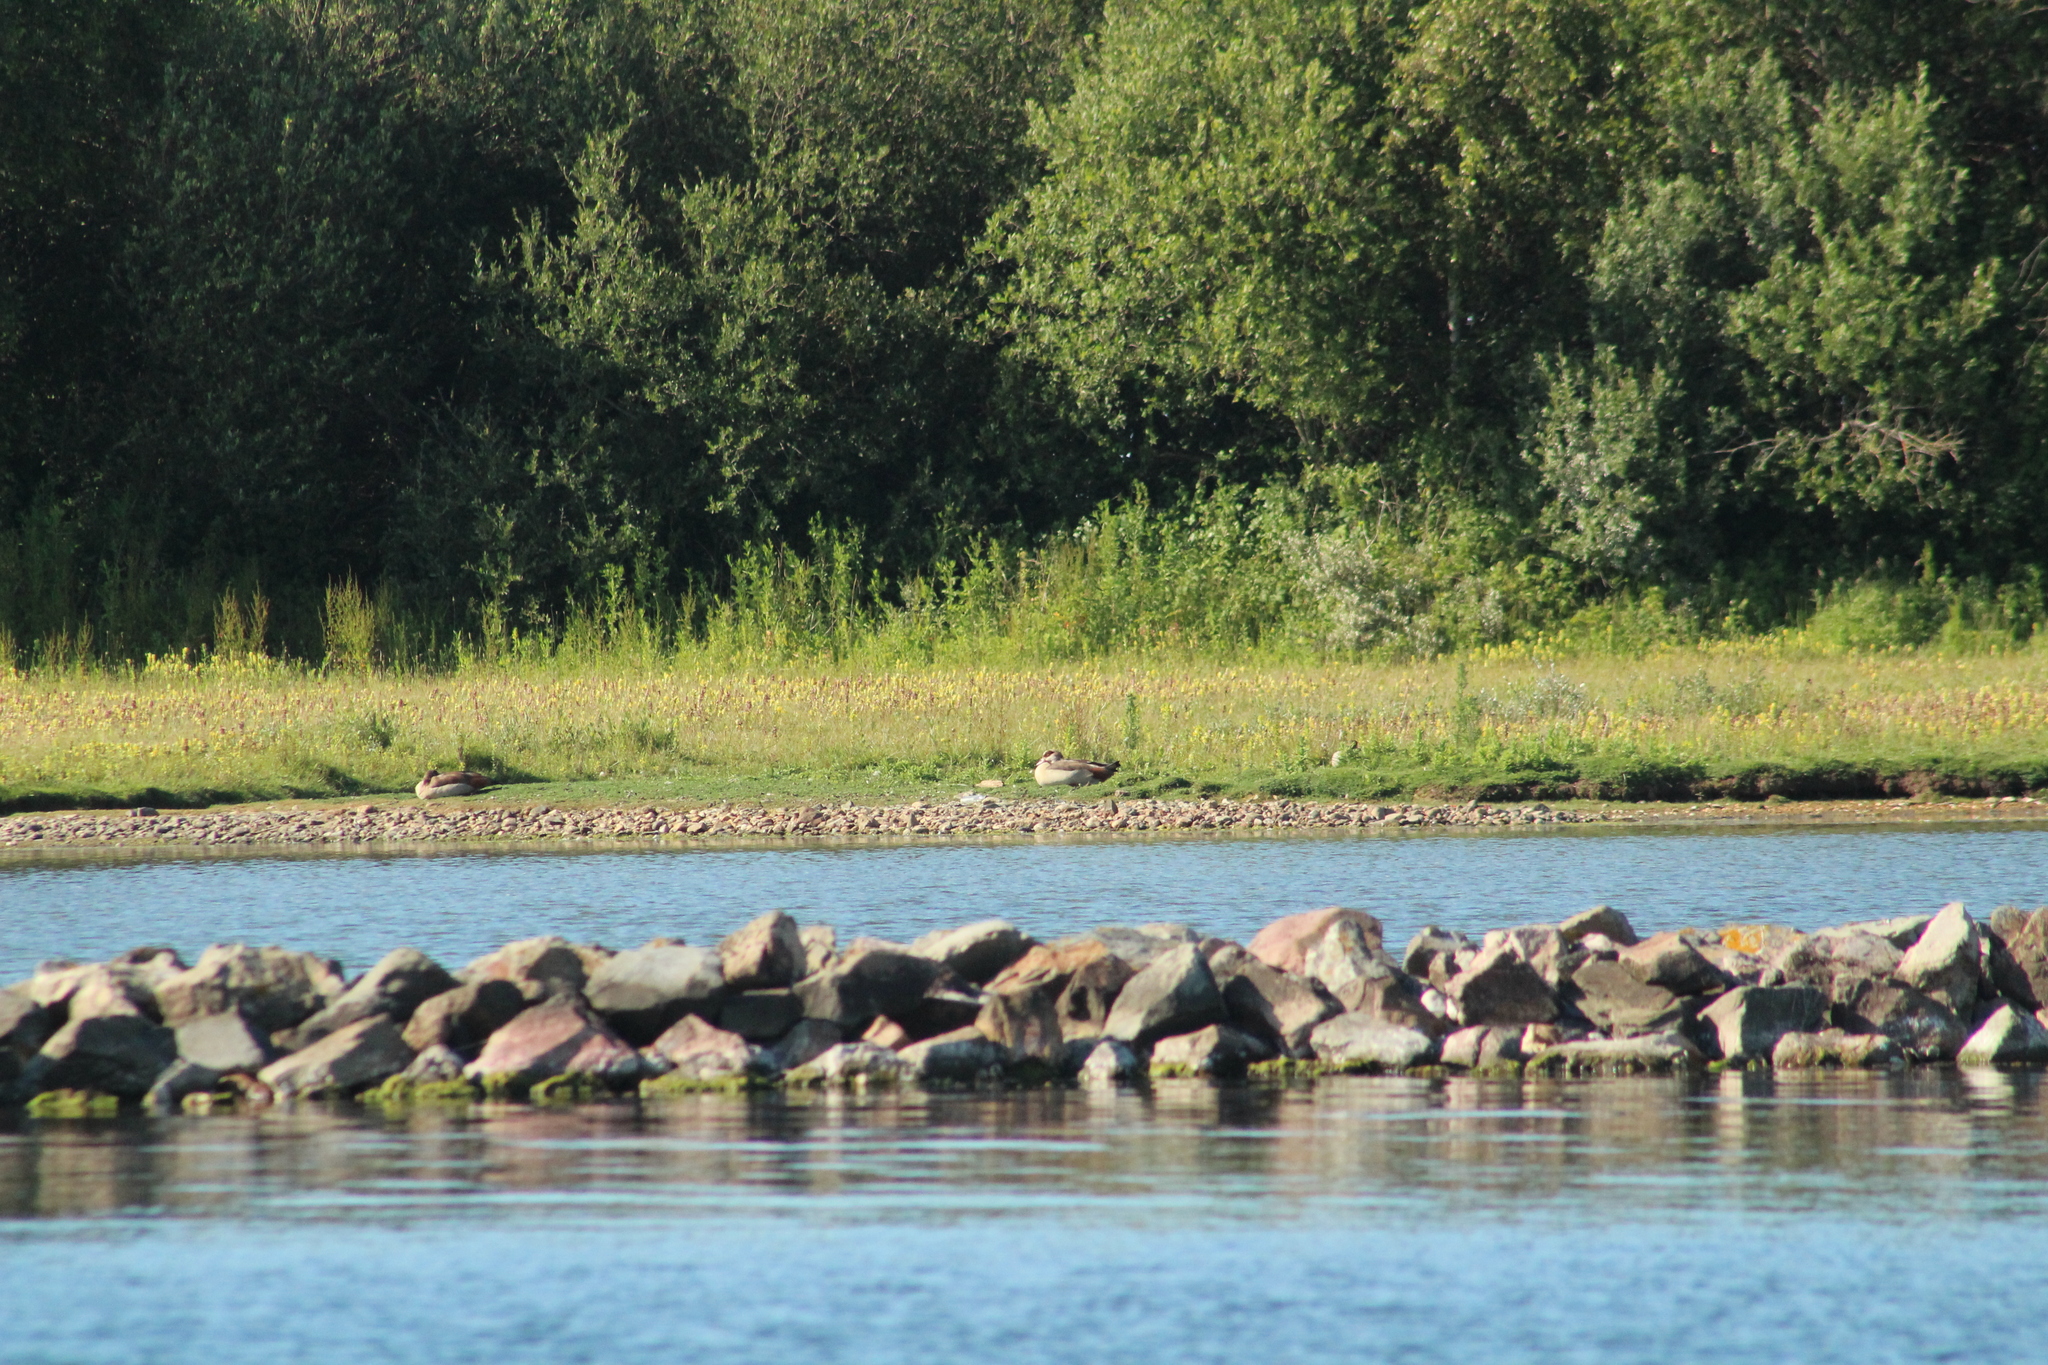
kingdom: Animalia
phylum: Chordata
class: Aves
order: Anseriformes
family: Anatidae
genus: Alopochen
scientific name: Alopochen aegyptiaca
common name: Egyptian goose
